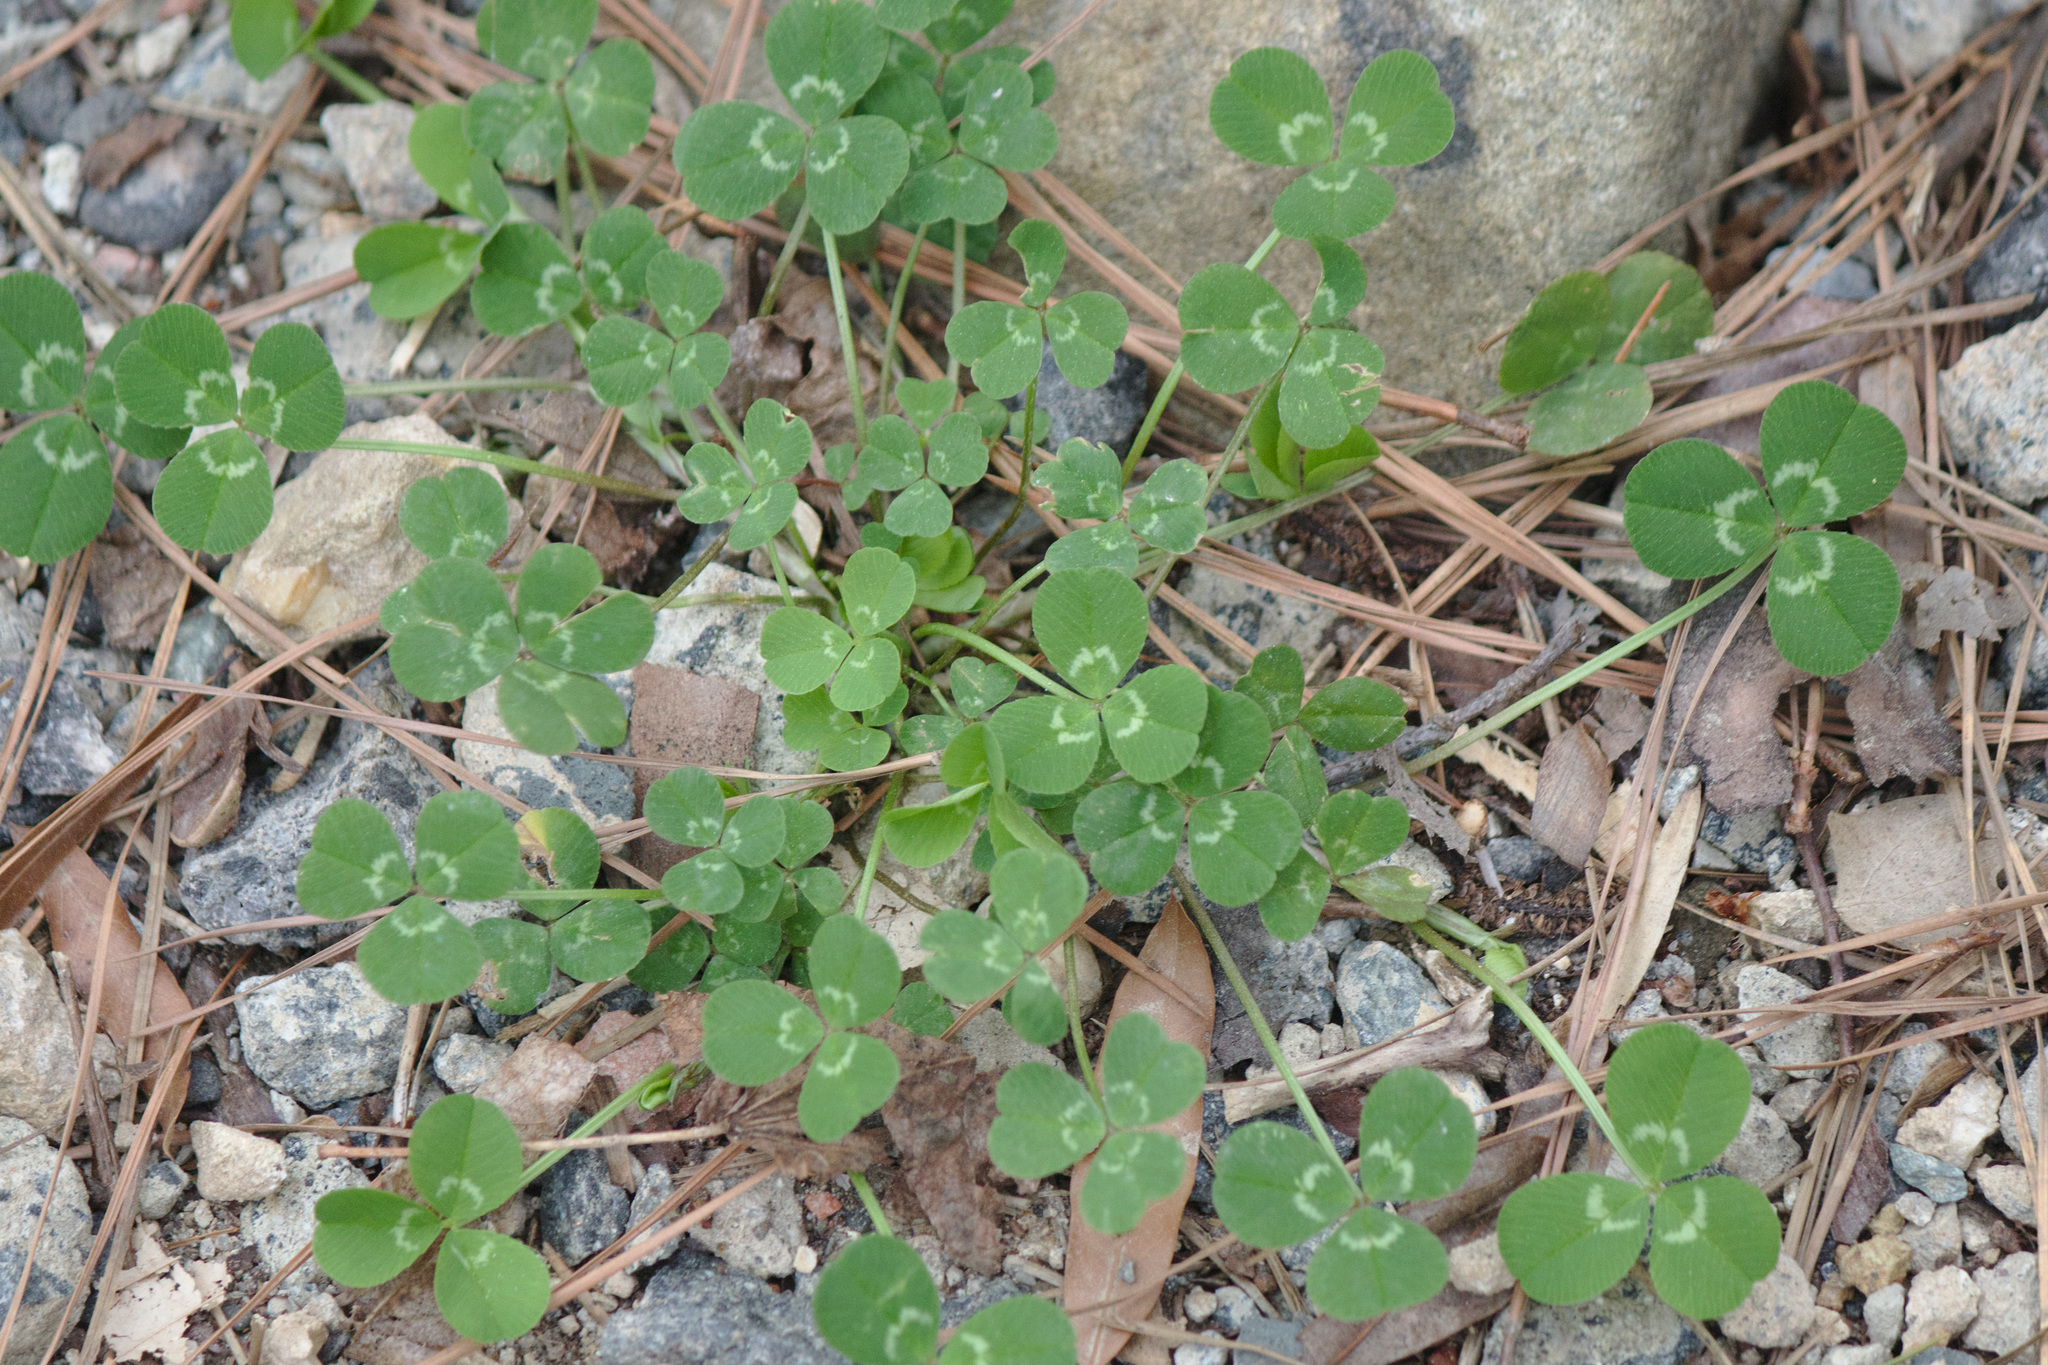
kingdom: Plantae
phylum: Tracheophyta
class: Magnoliopsida
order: Fabales
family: Fabaceae
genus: Trifolium
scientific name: Trifolium repens
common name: White clover
